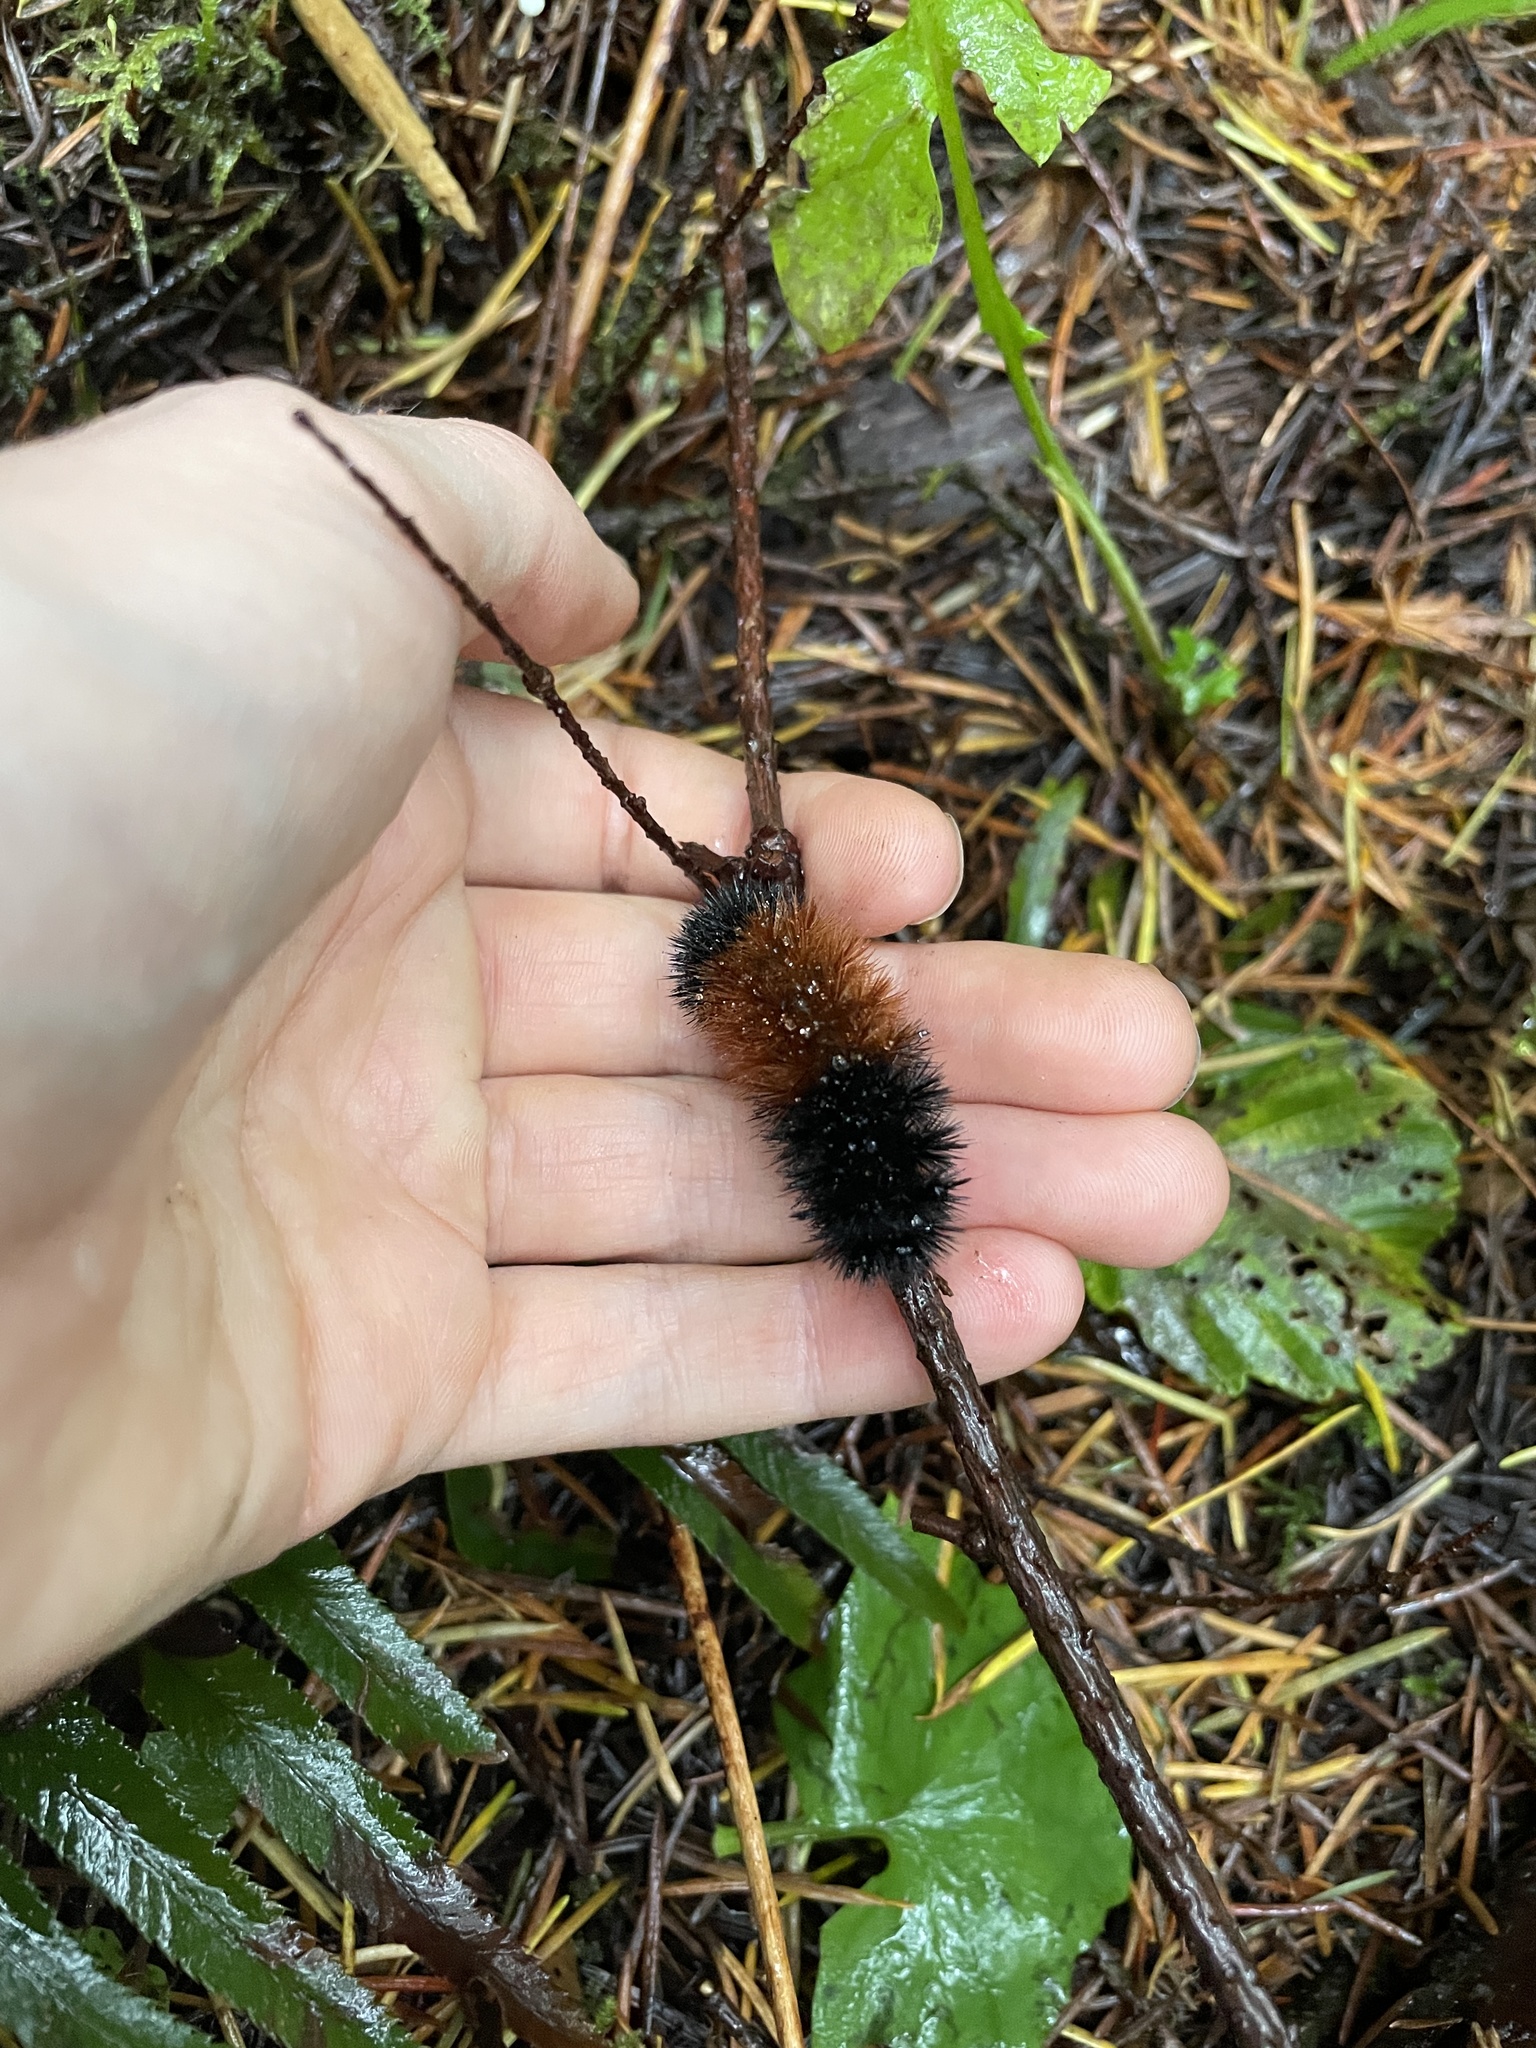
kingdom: Animalia
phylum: Arthropoda
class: Insecta
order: Lepidoptera
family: Erebidae
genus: Pyrrharctia
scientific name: Pyrrharctia isabella
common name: Isabella tiger moth
